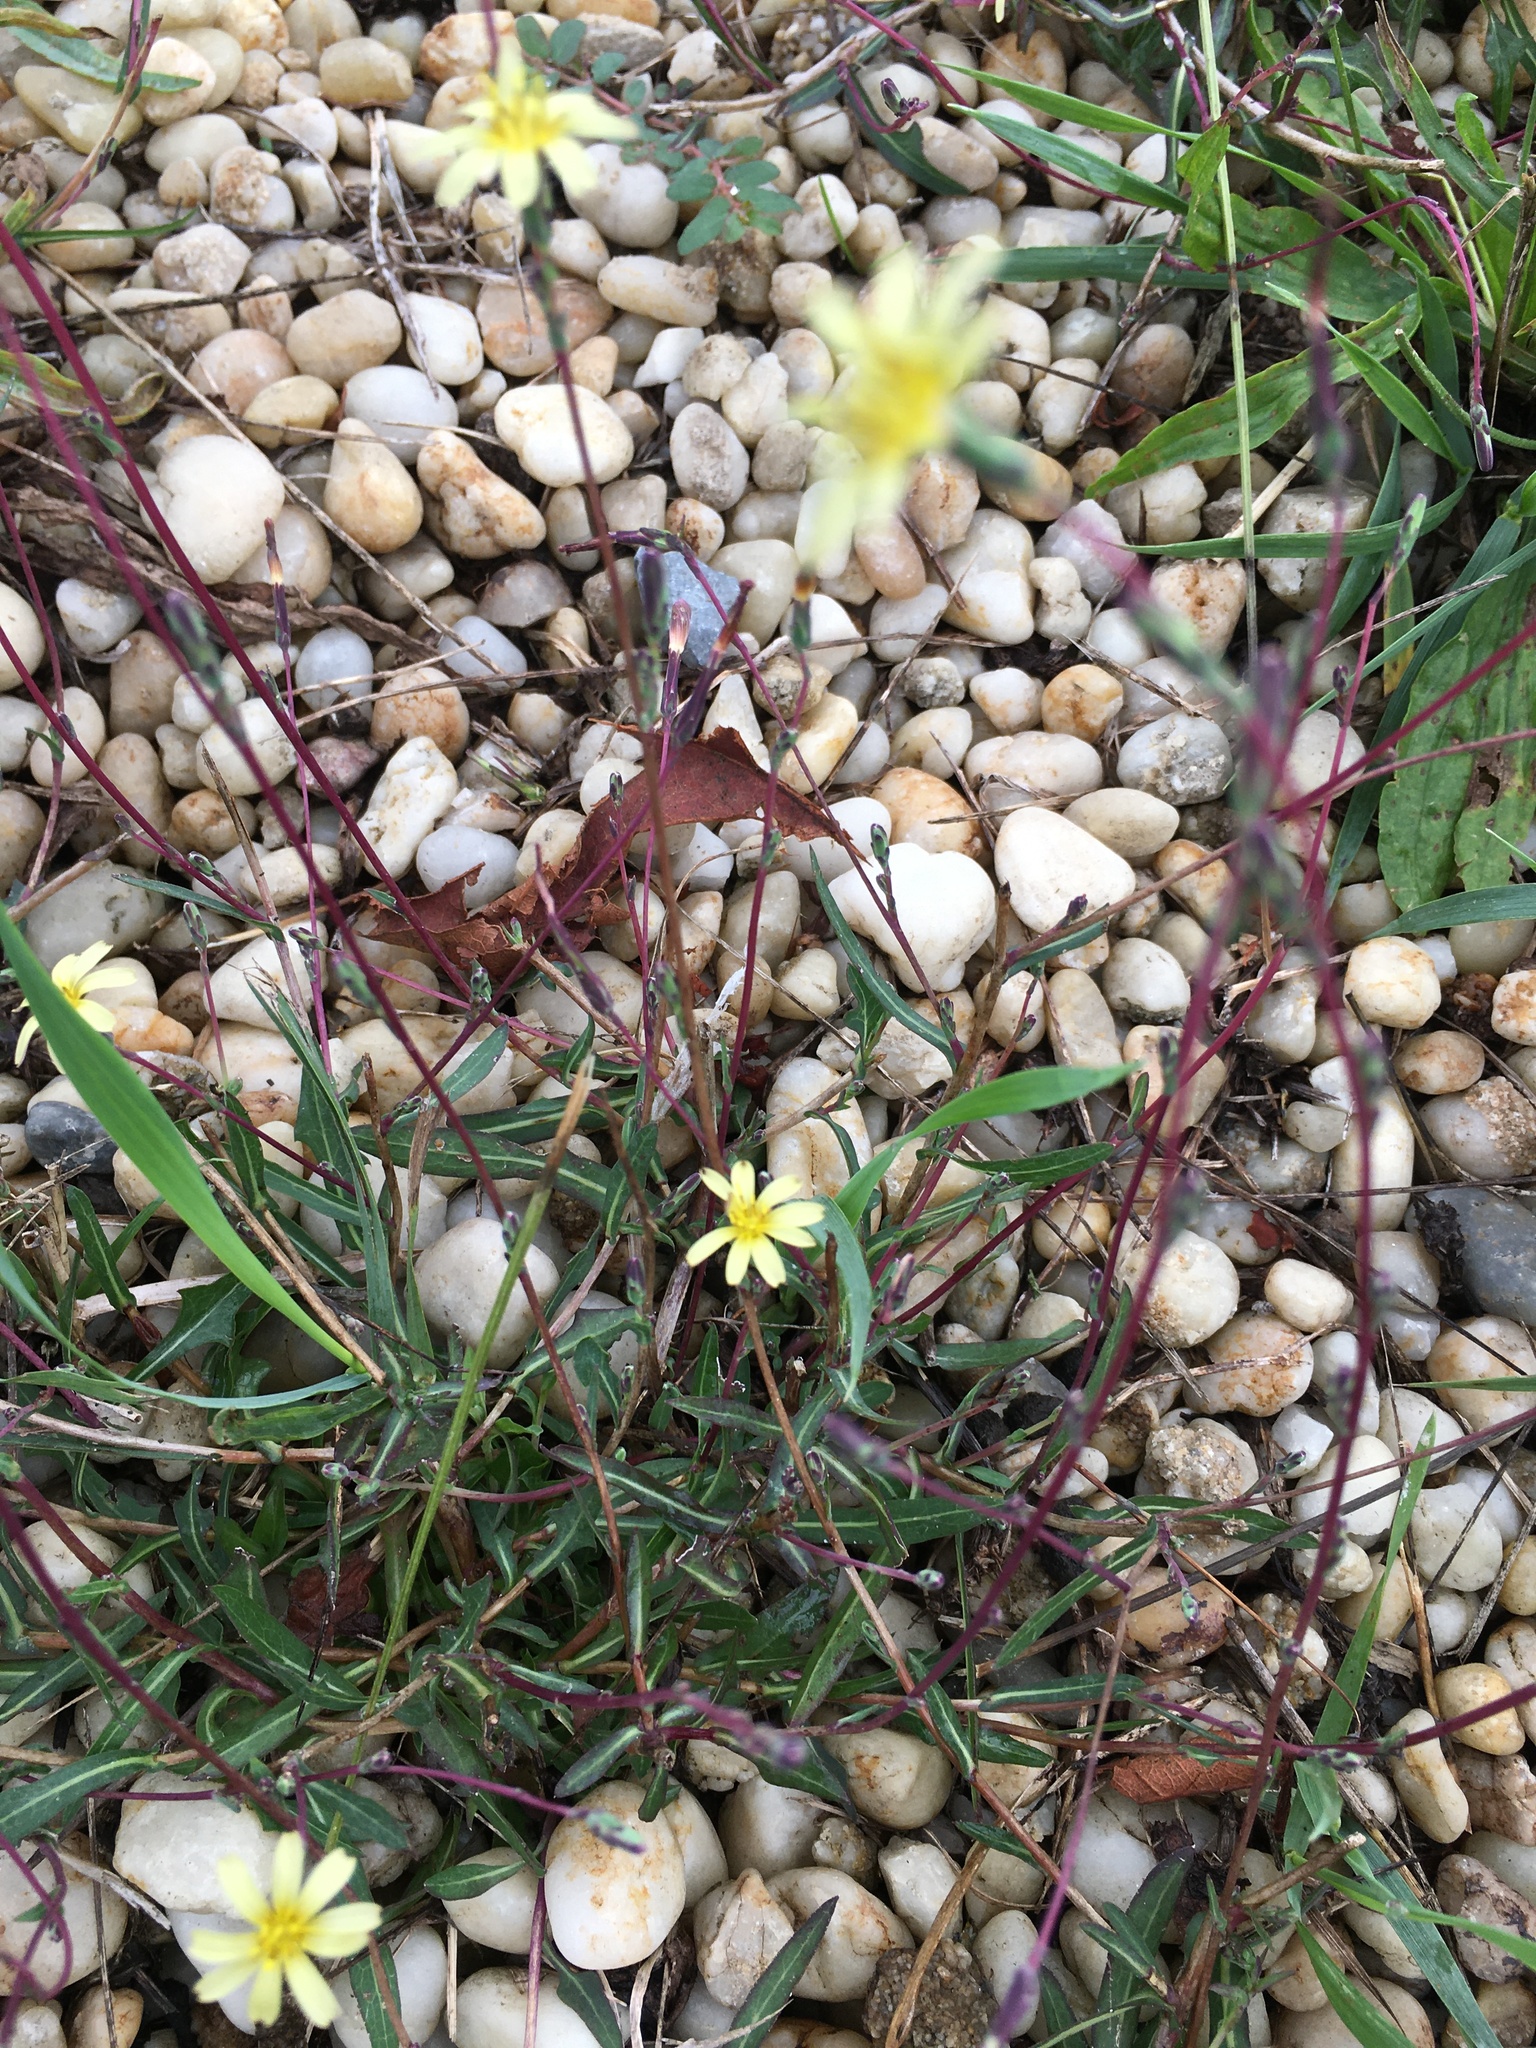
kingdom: Plantae
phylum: Tracheophyta
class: Magnoliopsida
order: Asterales
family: Asteraceae
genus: Lactuca
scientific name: Lactuca saligna
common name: Wild lettuce
